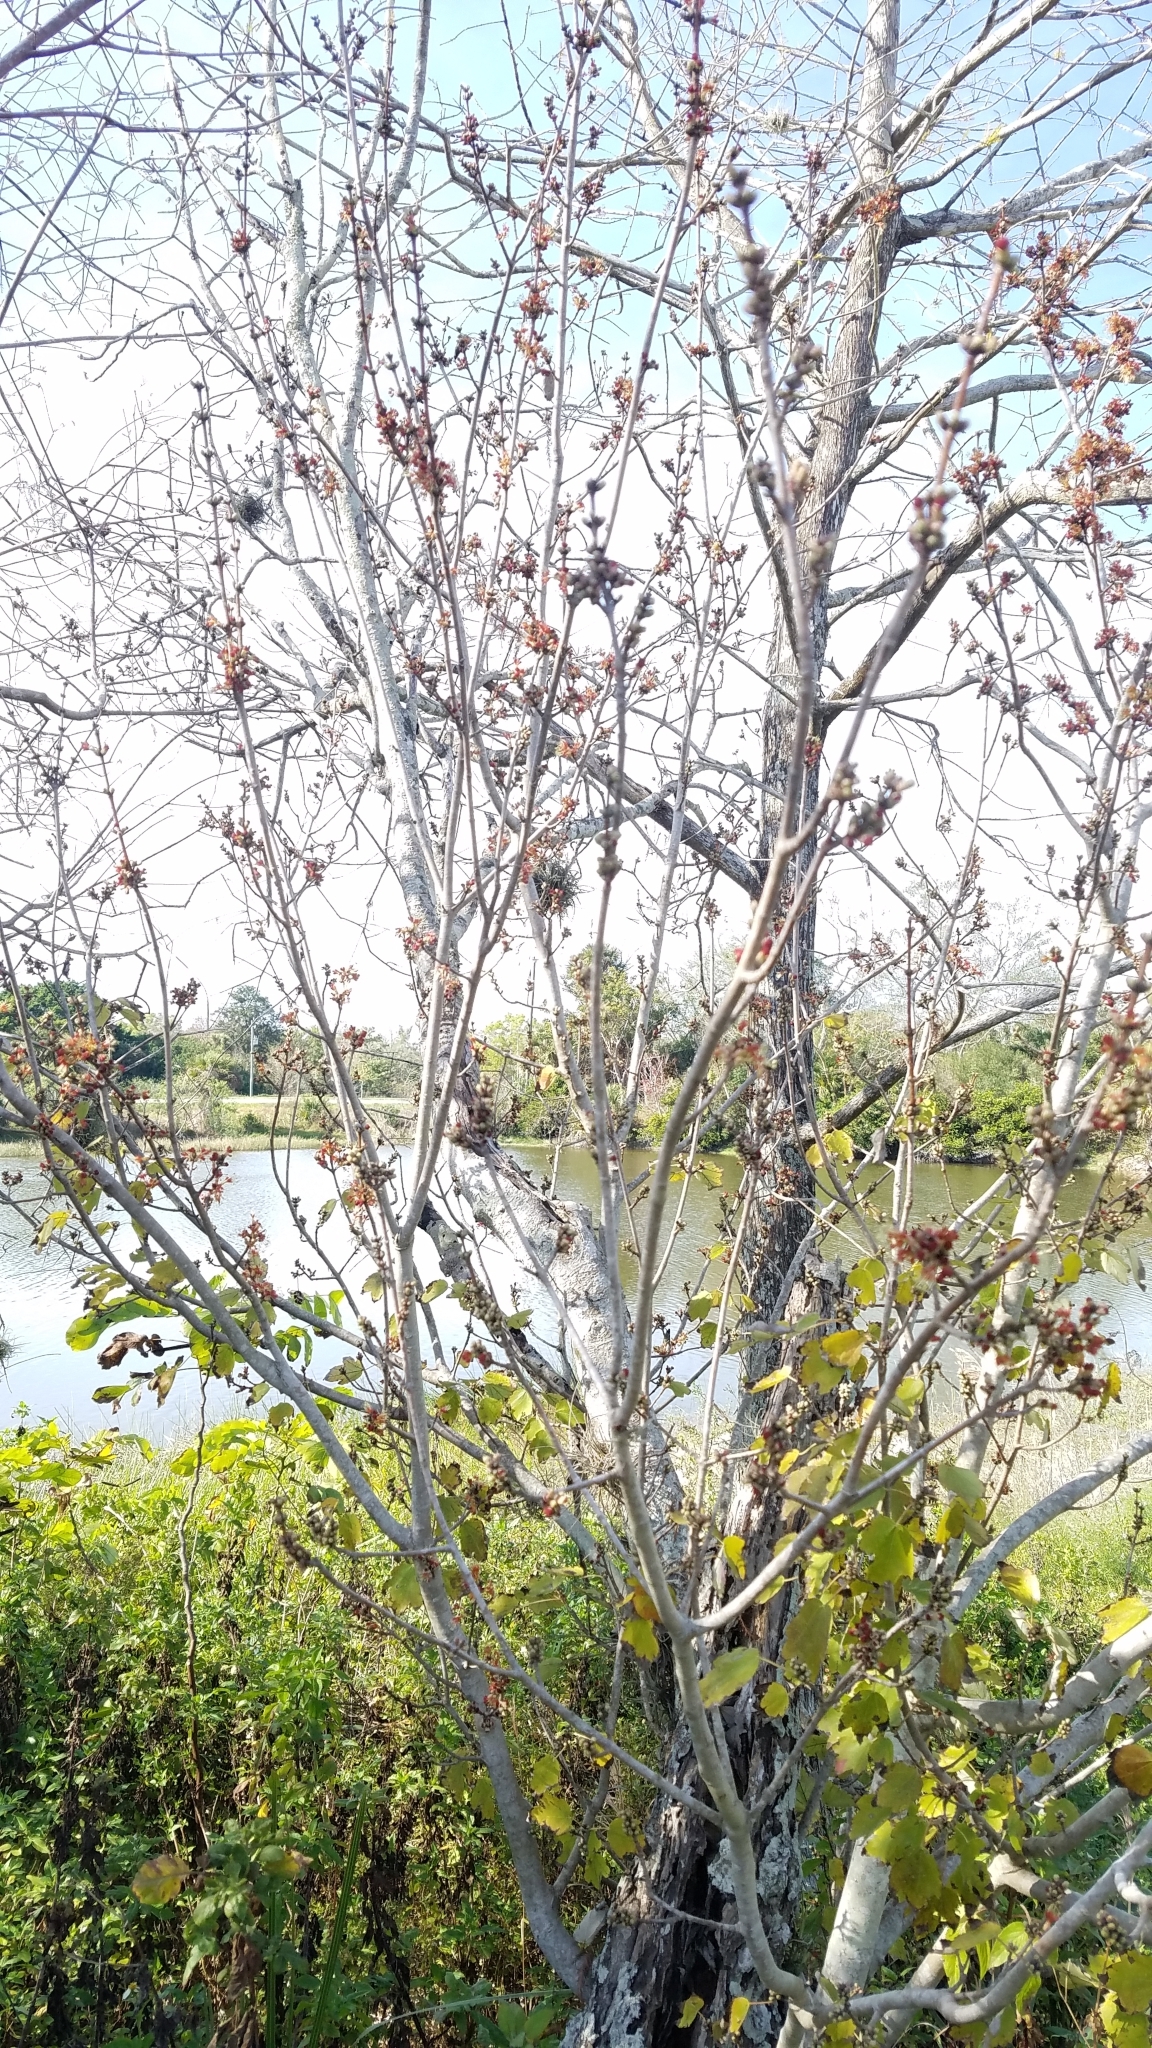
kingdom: Plantae
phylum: Tracheophyta
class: Magnoliopsida
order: Sapindales
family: Sapindaceae
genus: Acer
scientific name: Acer rubrum
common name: Red maple
